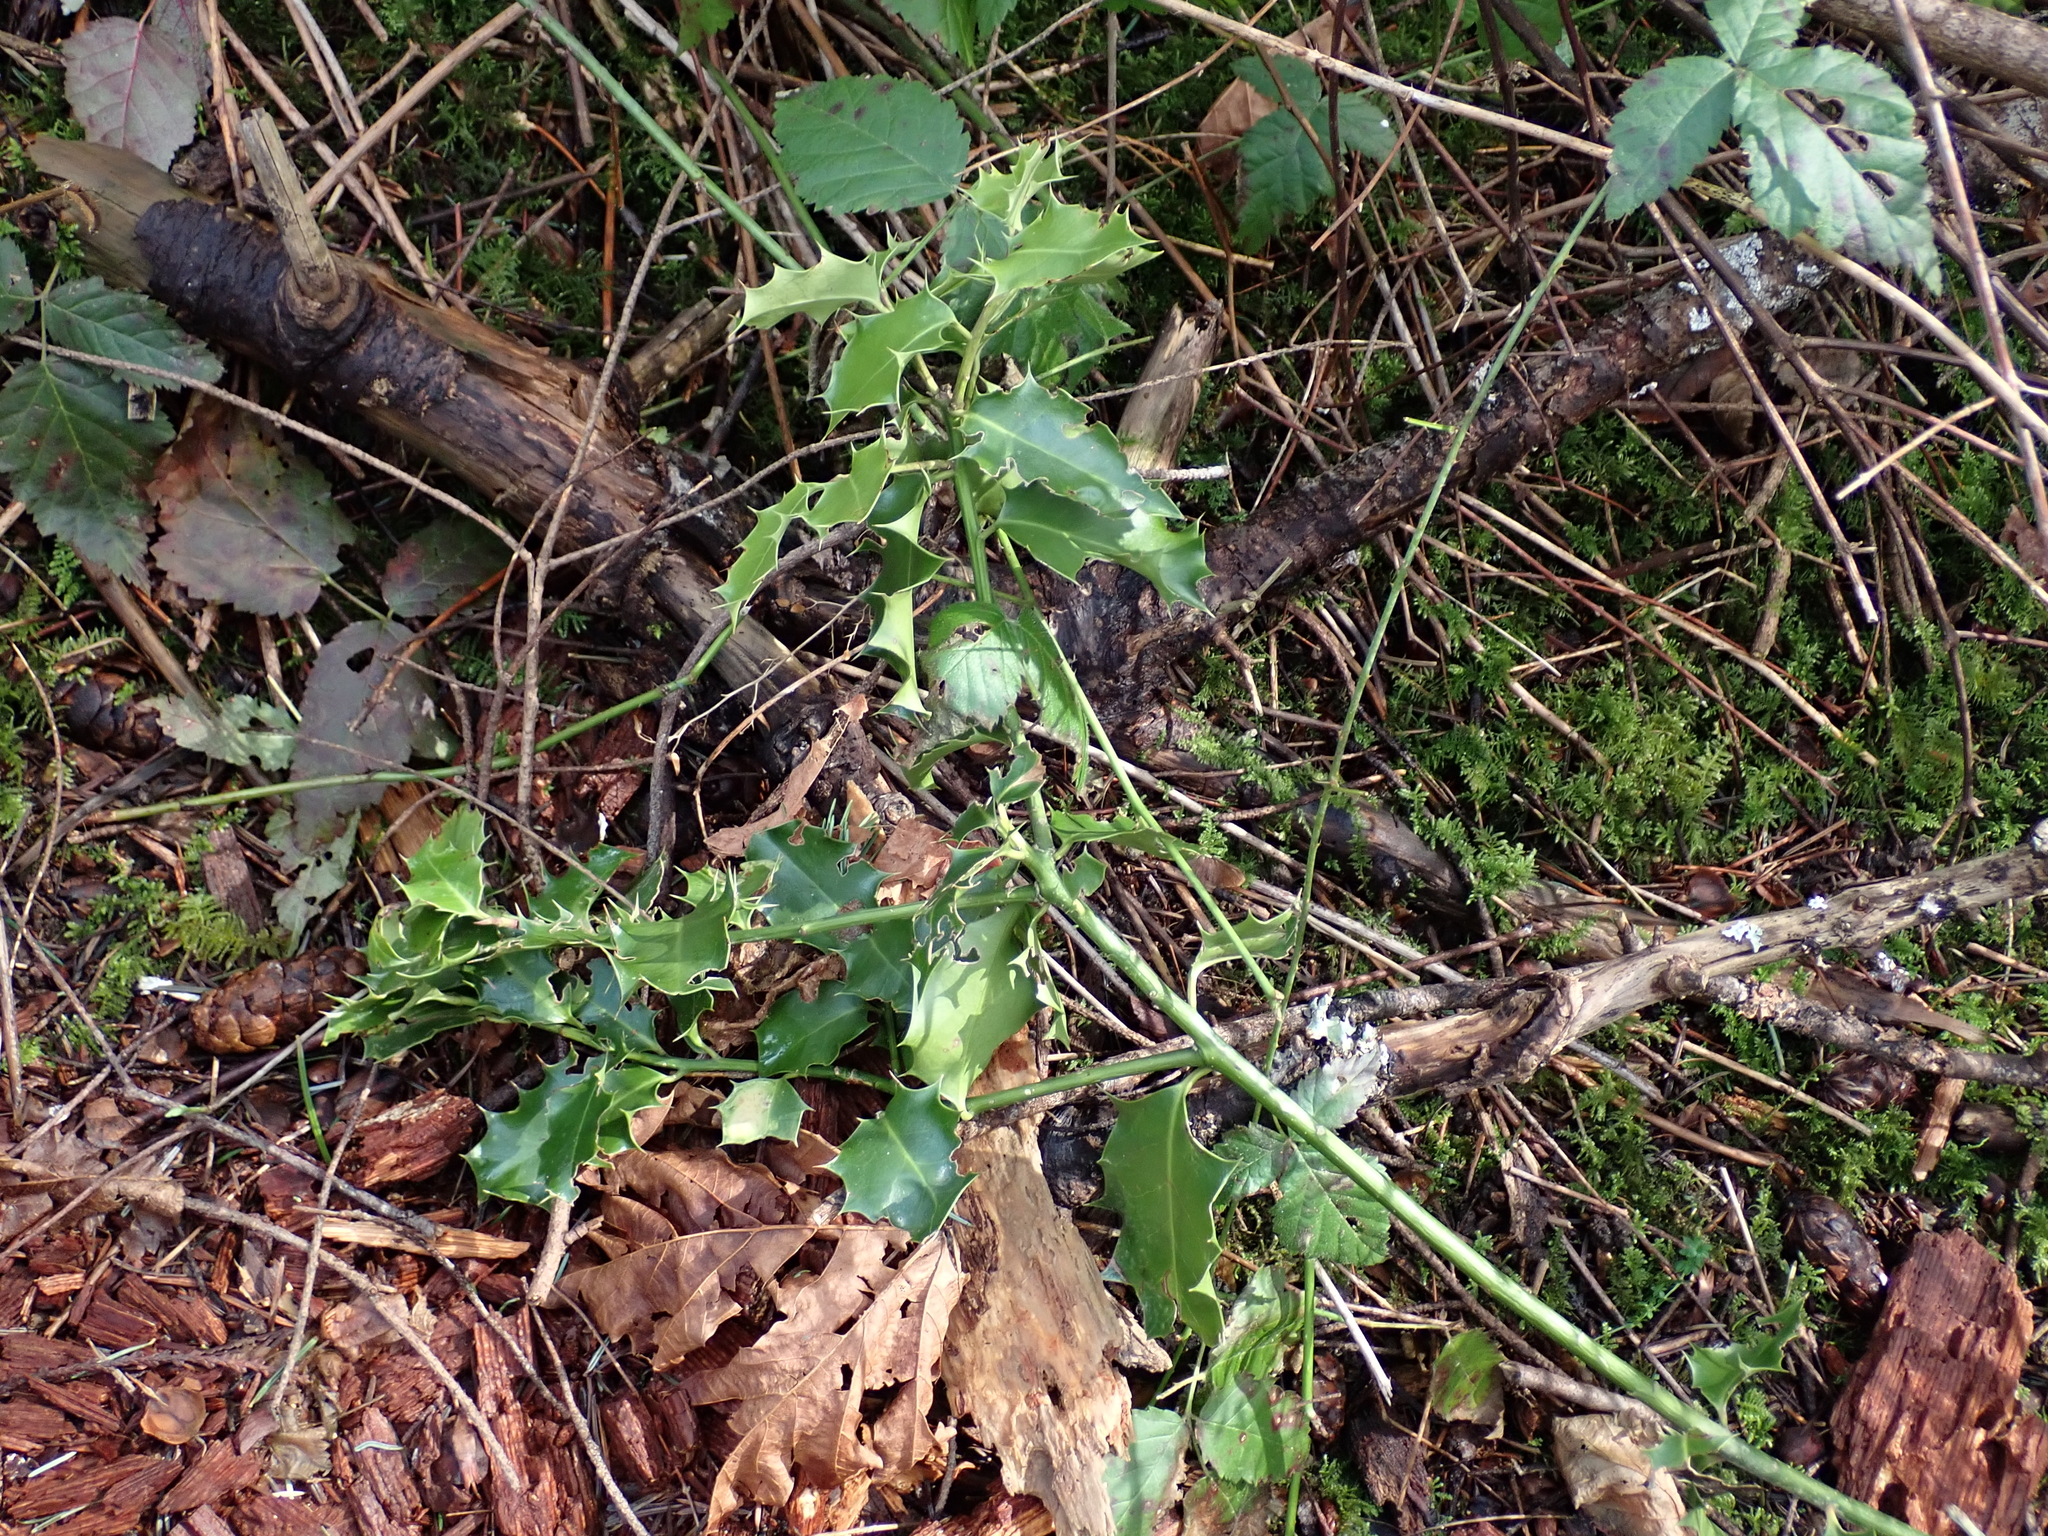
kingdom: Plantae
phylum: Tracheophyta
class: Magnoliopsida
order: Aquifoliales
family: Aquifoliaceae
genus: Ilex
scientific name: Ilex aquifolium
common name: English holly
